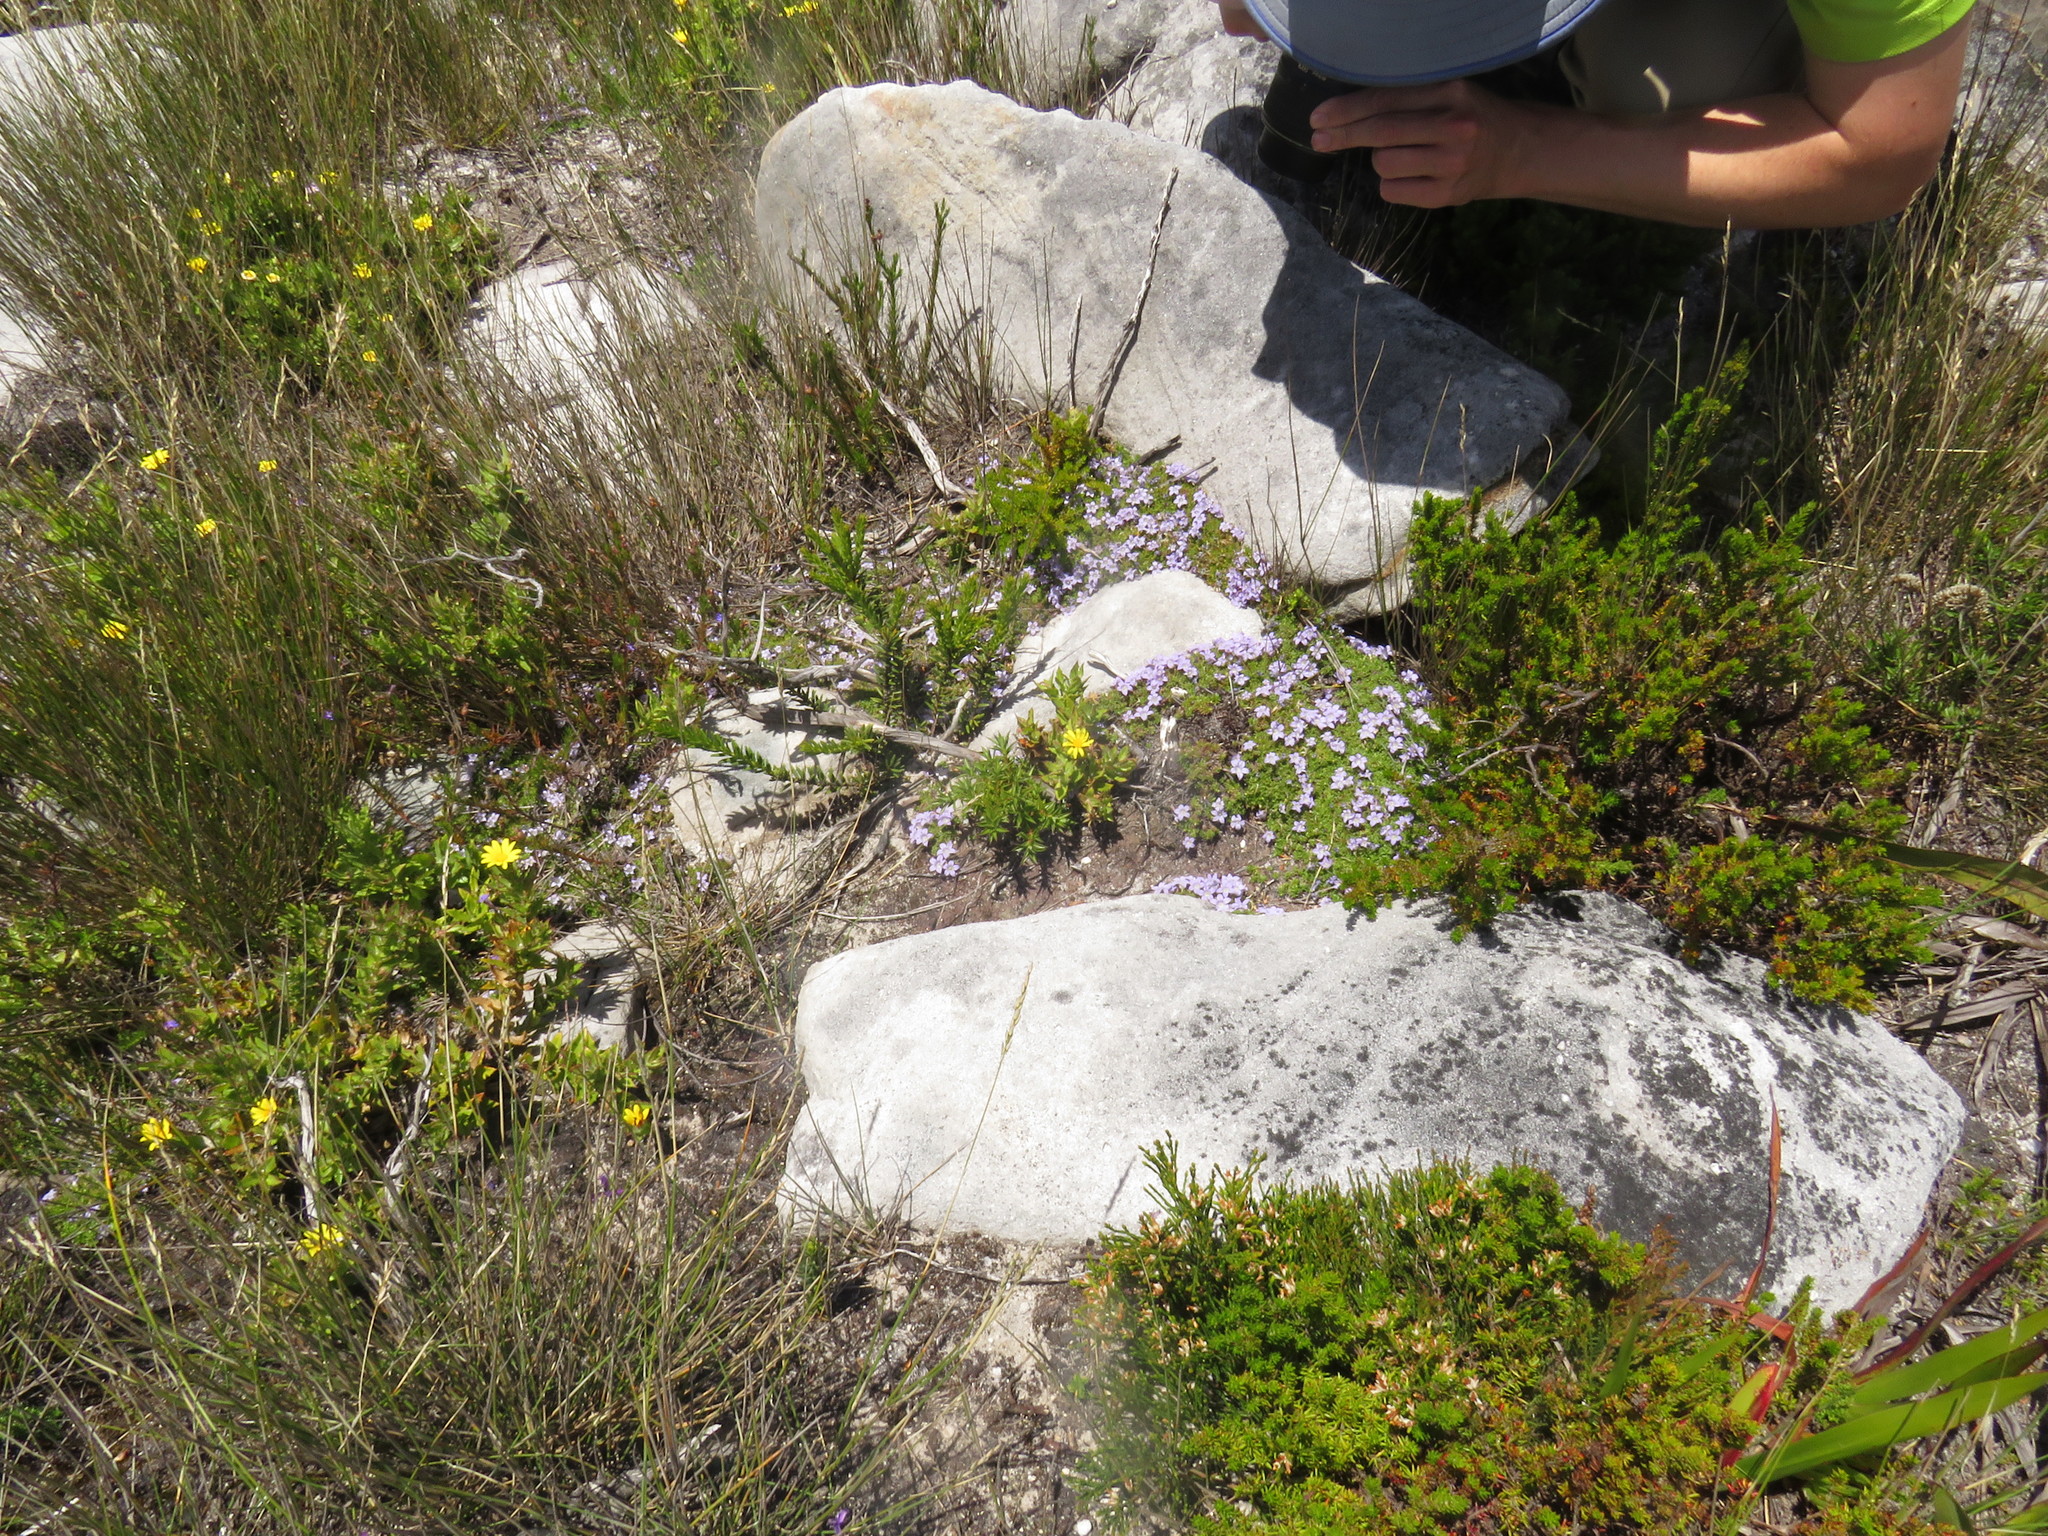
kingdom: Plantae
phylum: Tracheophyta
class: Magnoliopsida
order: Asterales
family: Campanulaceae
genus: Roella
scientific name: Roella muscosa
